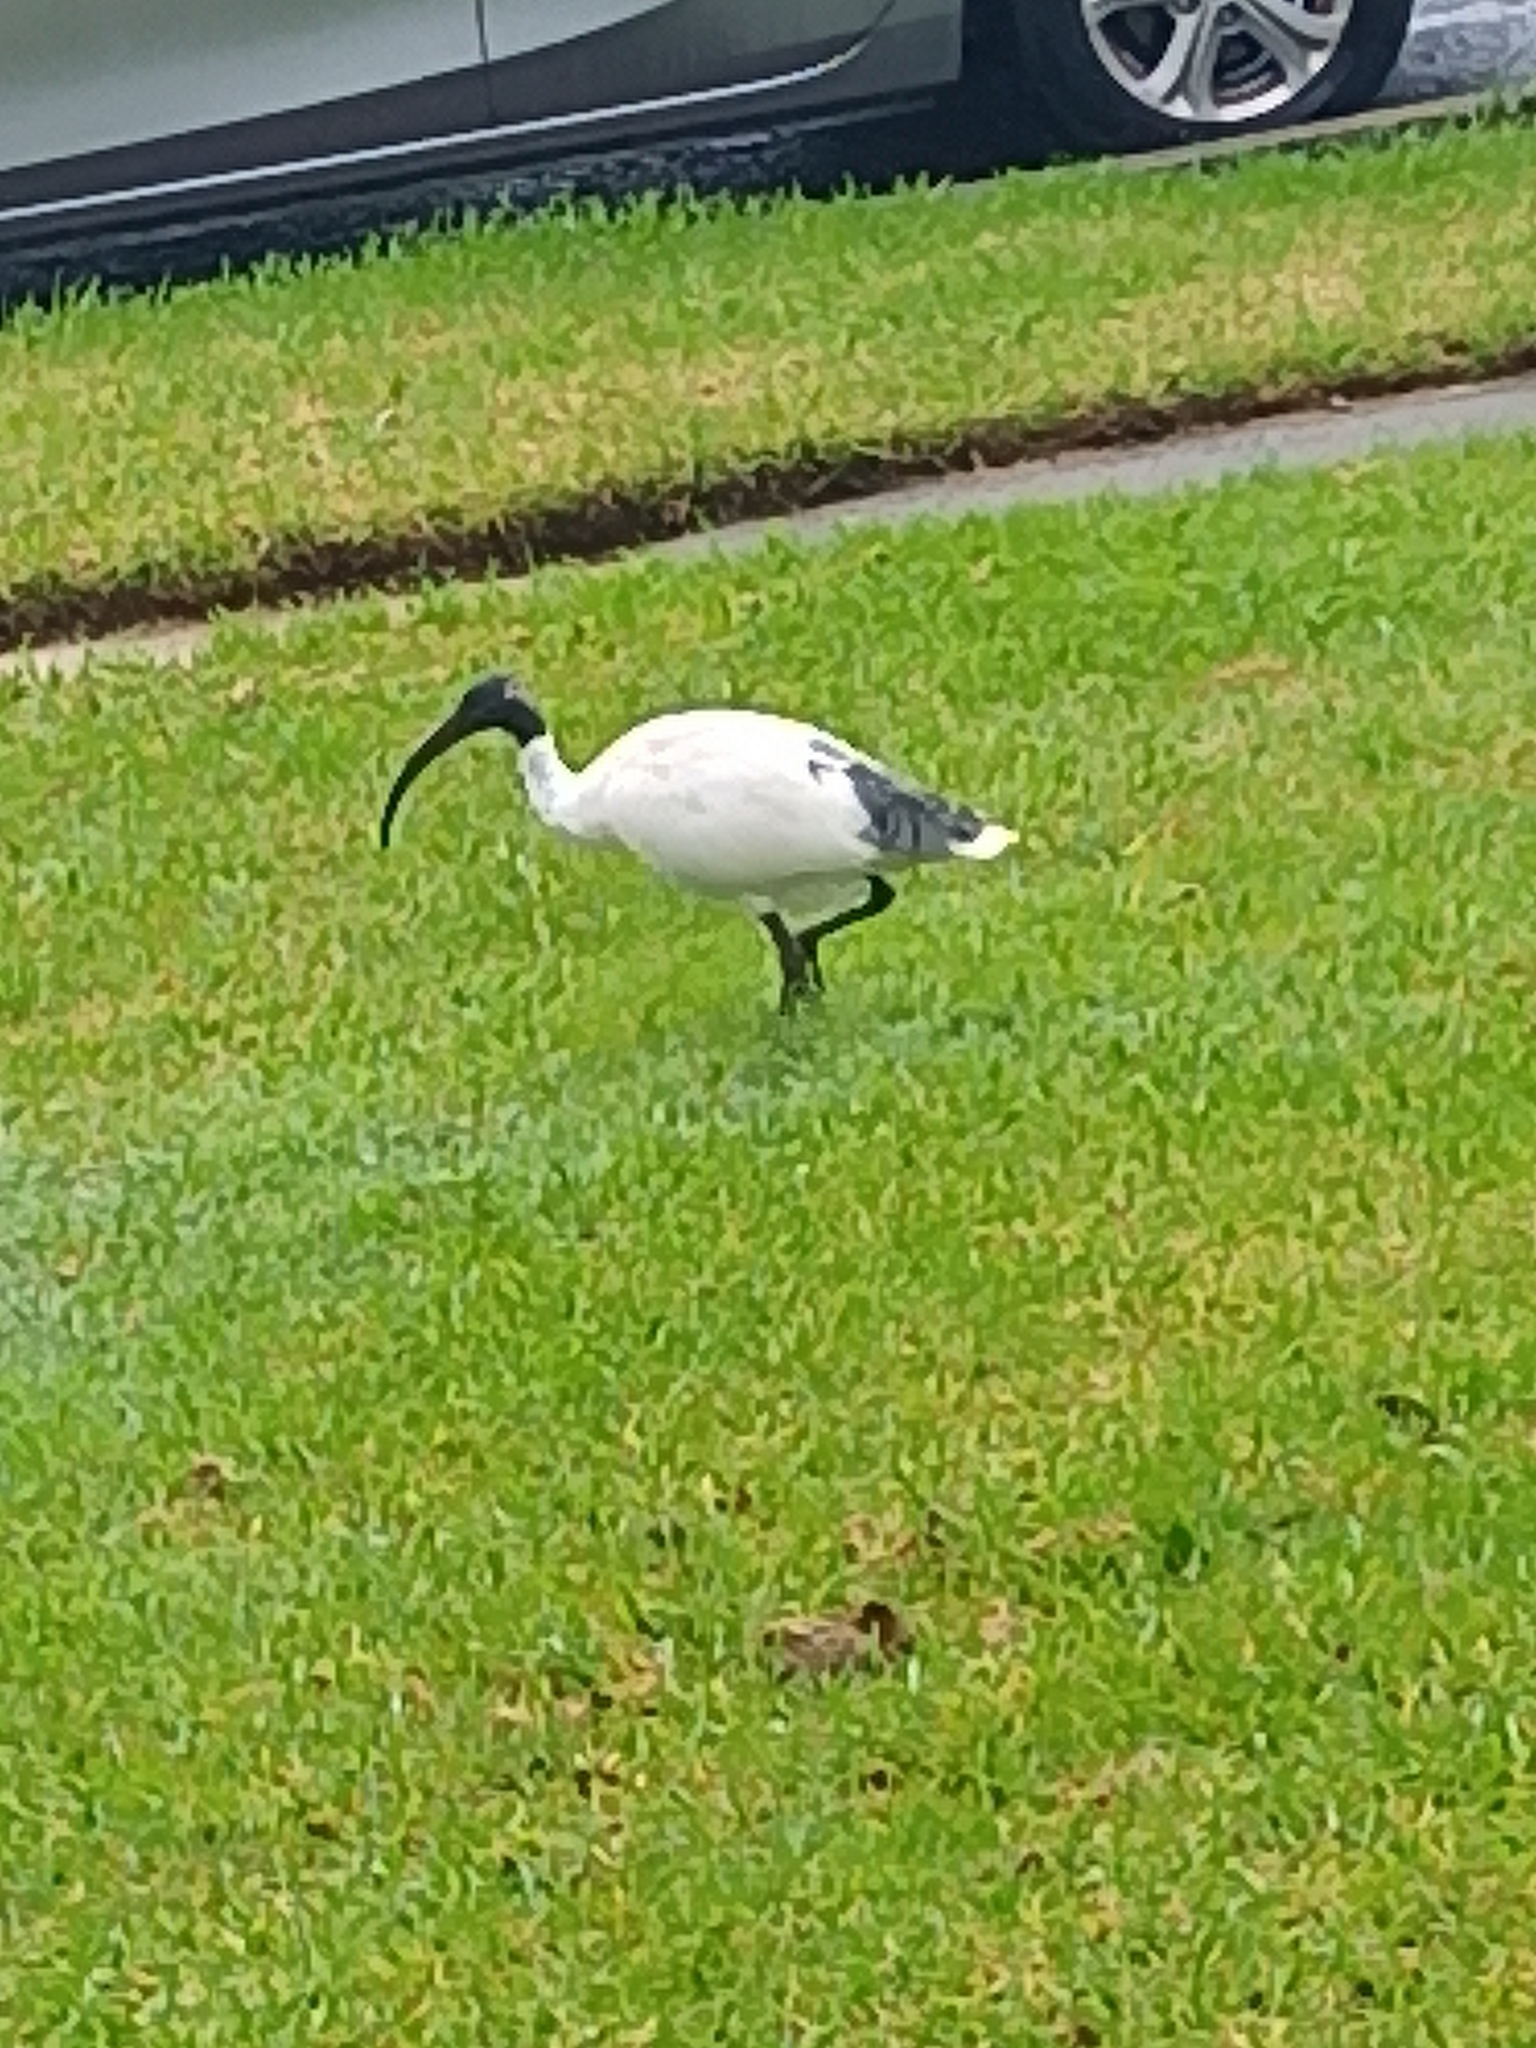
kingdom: Animalia
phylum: Chordata
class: Aves
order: Pelecaniformes
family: Threskiornithidae
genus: Threskiornis
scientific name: Threskiornis molucca
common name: Australian white ibis
